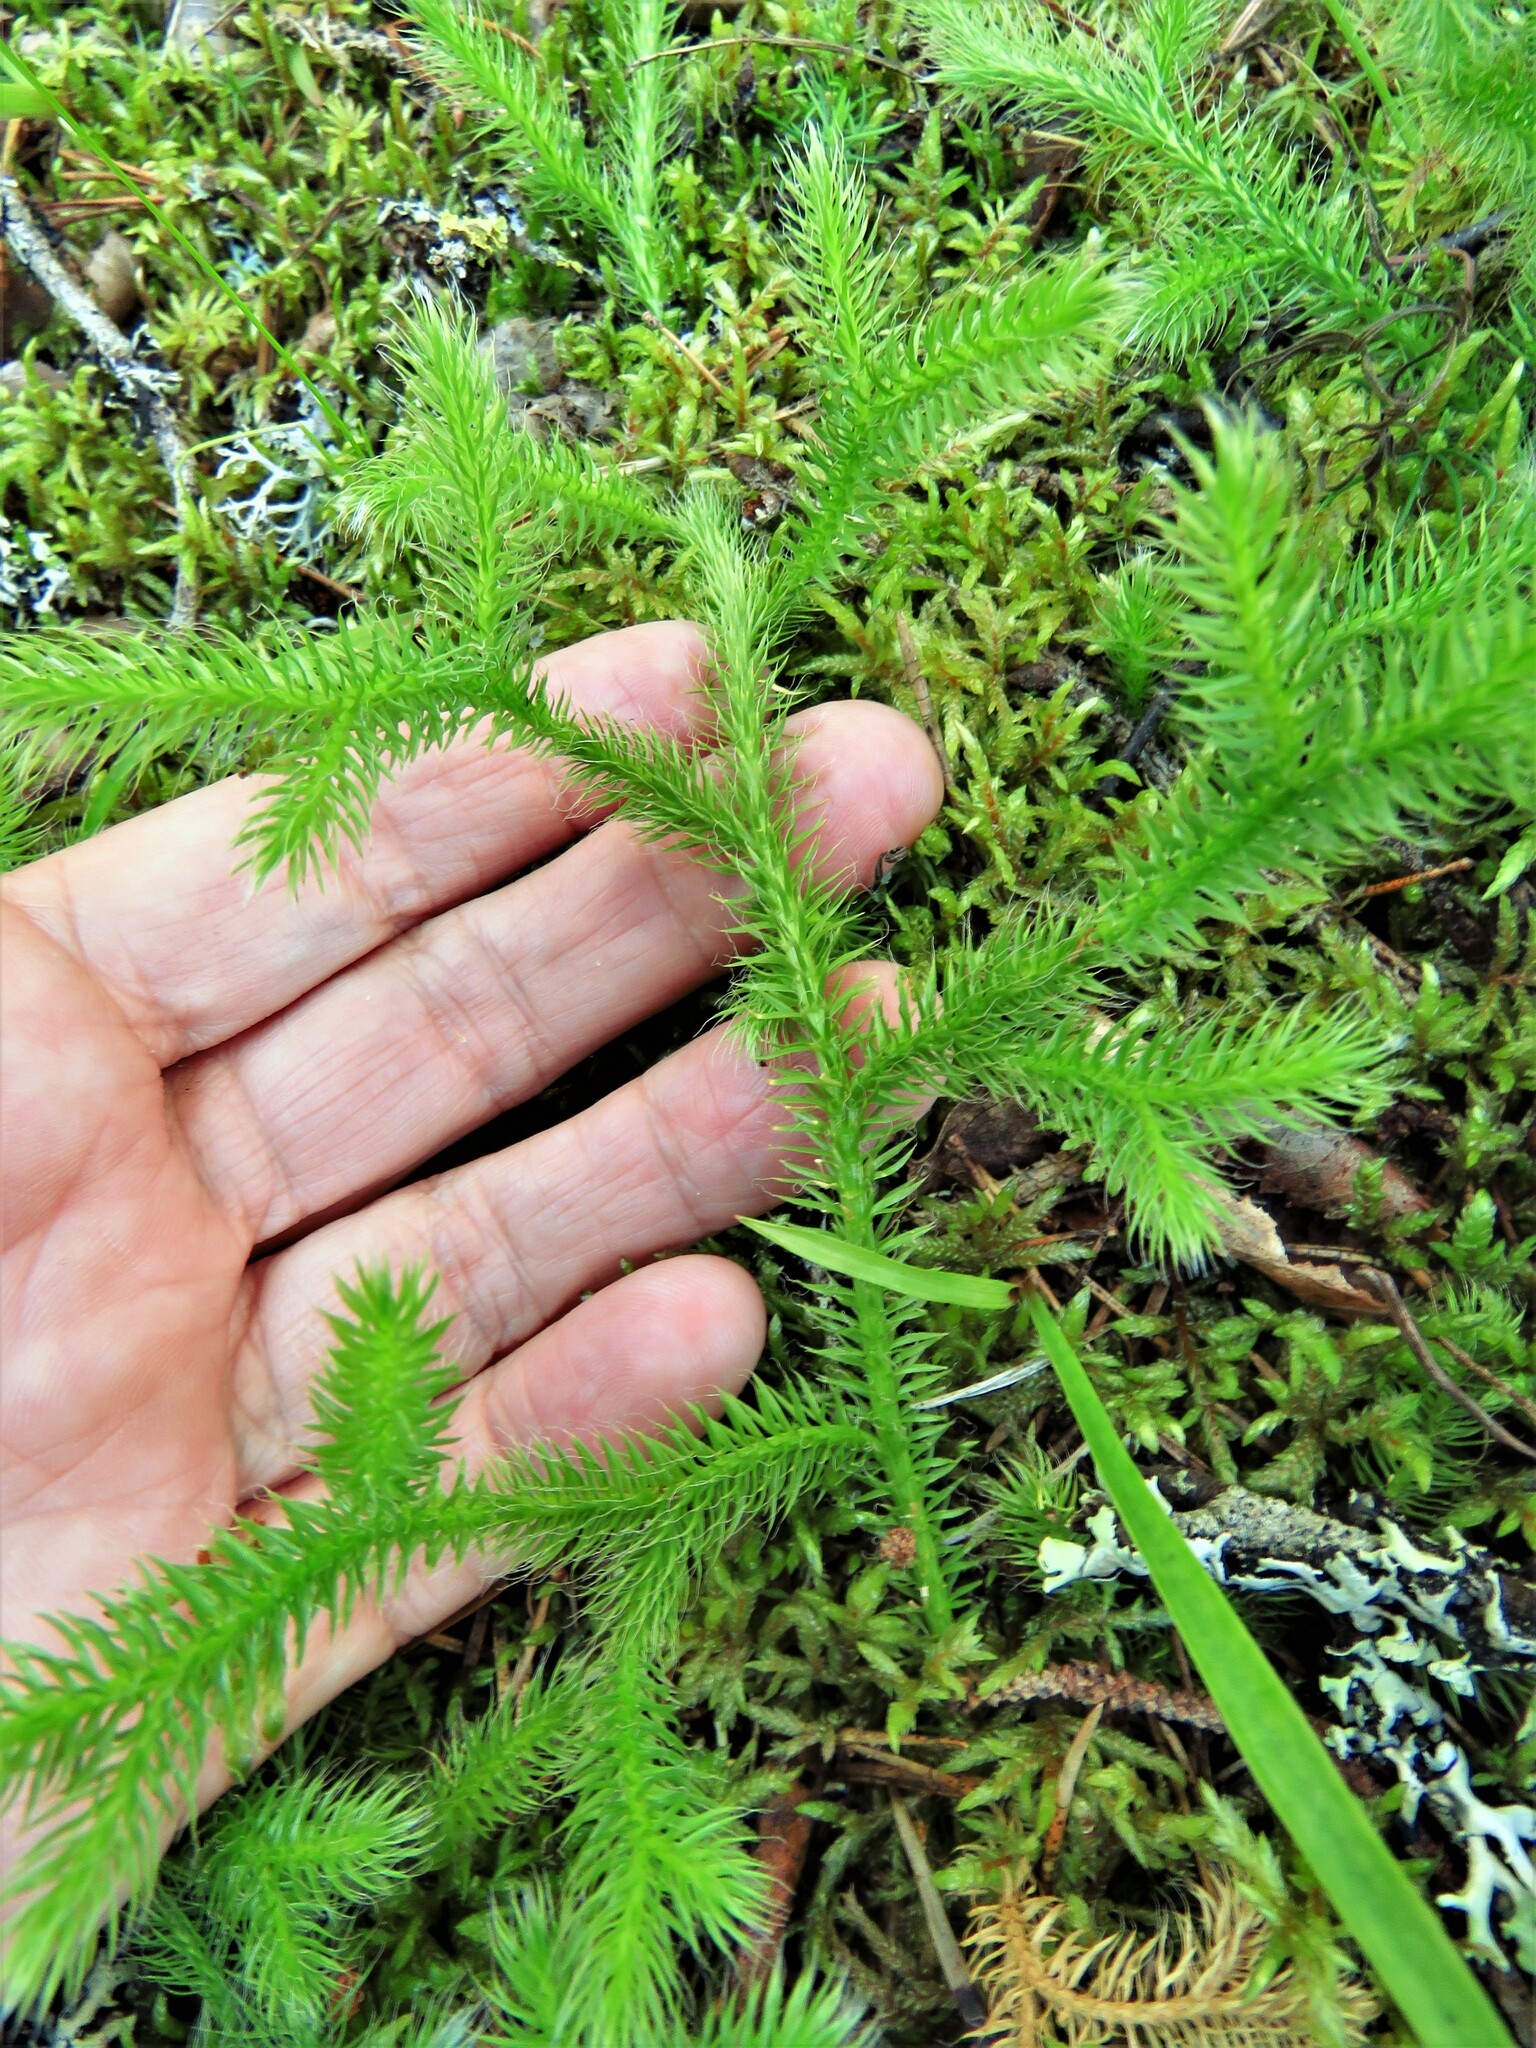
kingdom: Plantae
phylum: Tracheophyta
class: Lycopodiopsida
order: Lycopodiales
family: Lycopodiaceae
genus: Lycopodium
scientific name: Lycopodium clavatum
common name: Stag's-horn clubmoss
